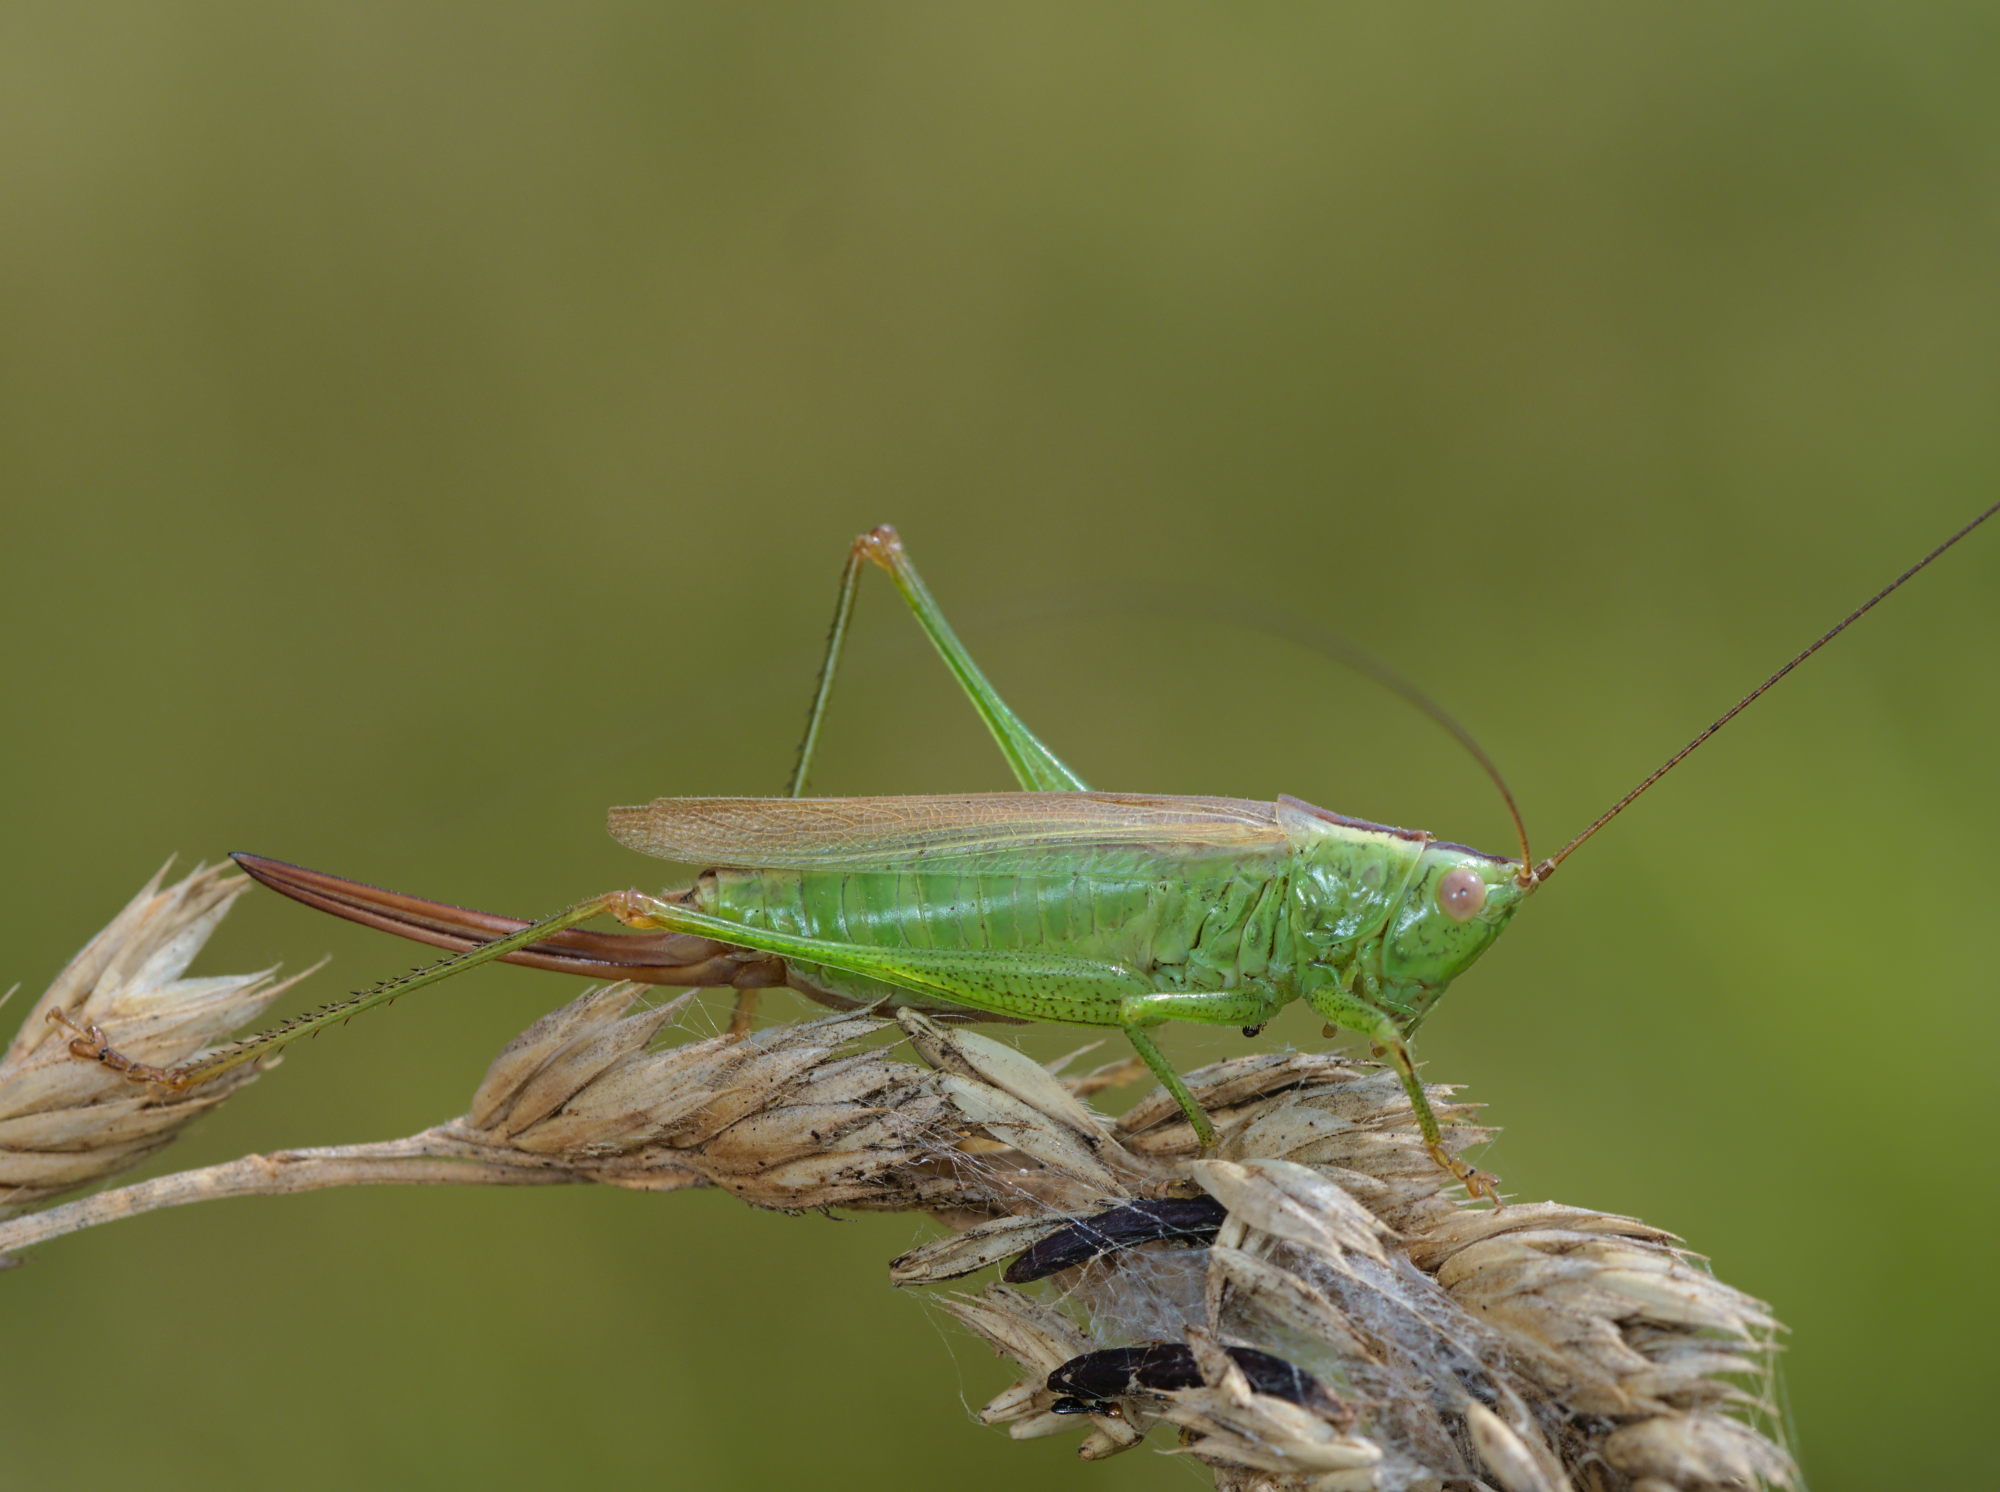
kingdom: Animalia
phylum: Arthropoda
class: Insecta
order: Orthoptera
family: Tettigoniidae
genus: Conocephalus
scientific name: Conocephalus fuscus
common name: Long-winged conehead
